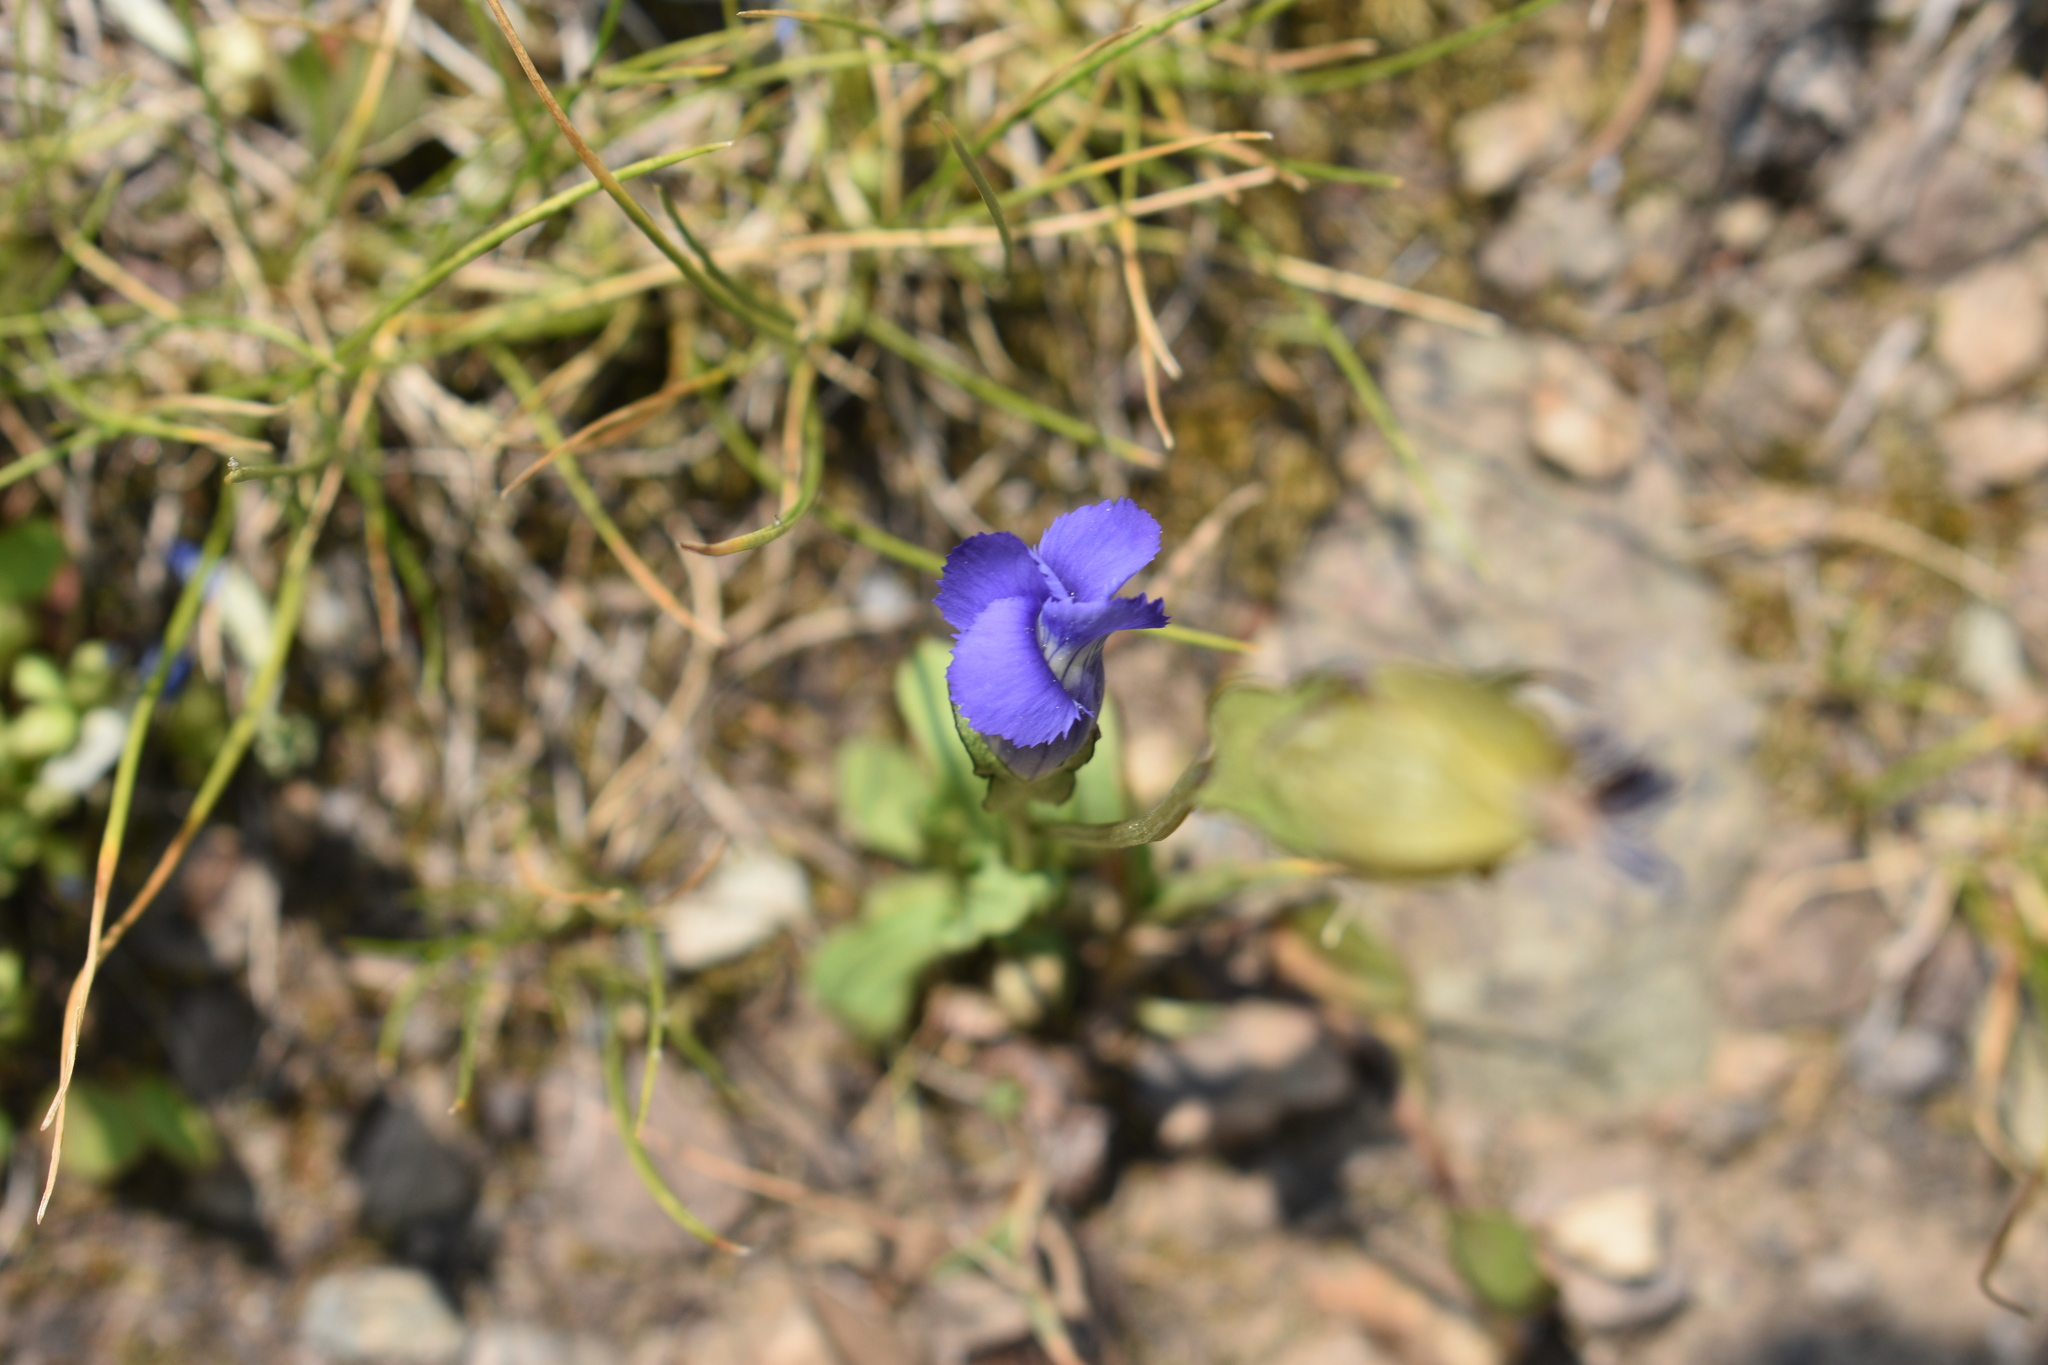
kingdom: Plantae
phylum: Tracheophyta
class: Magnoliopsida
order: Gentianales
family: Gentianaceae
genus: Gentianopsis
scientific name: Gentianopsis thermalis
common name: Rocky mountain fringed-gentian
